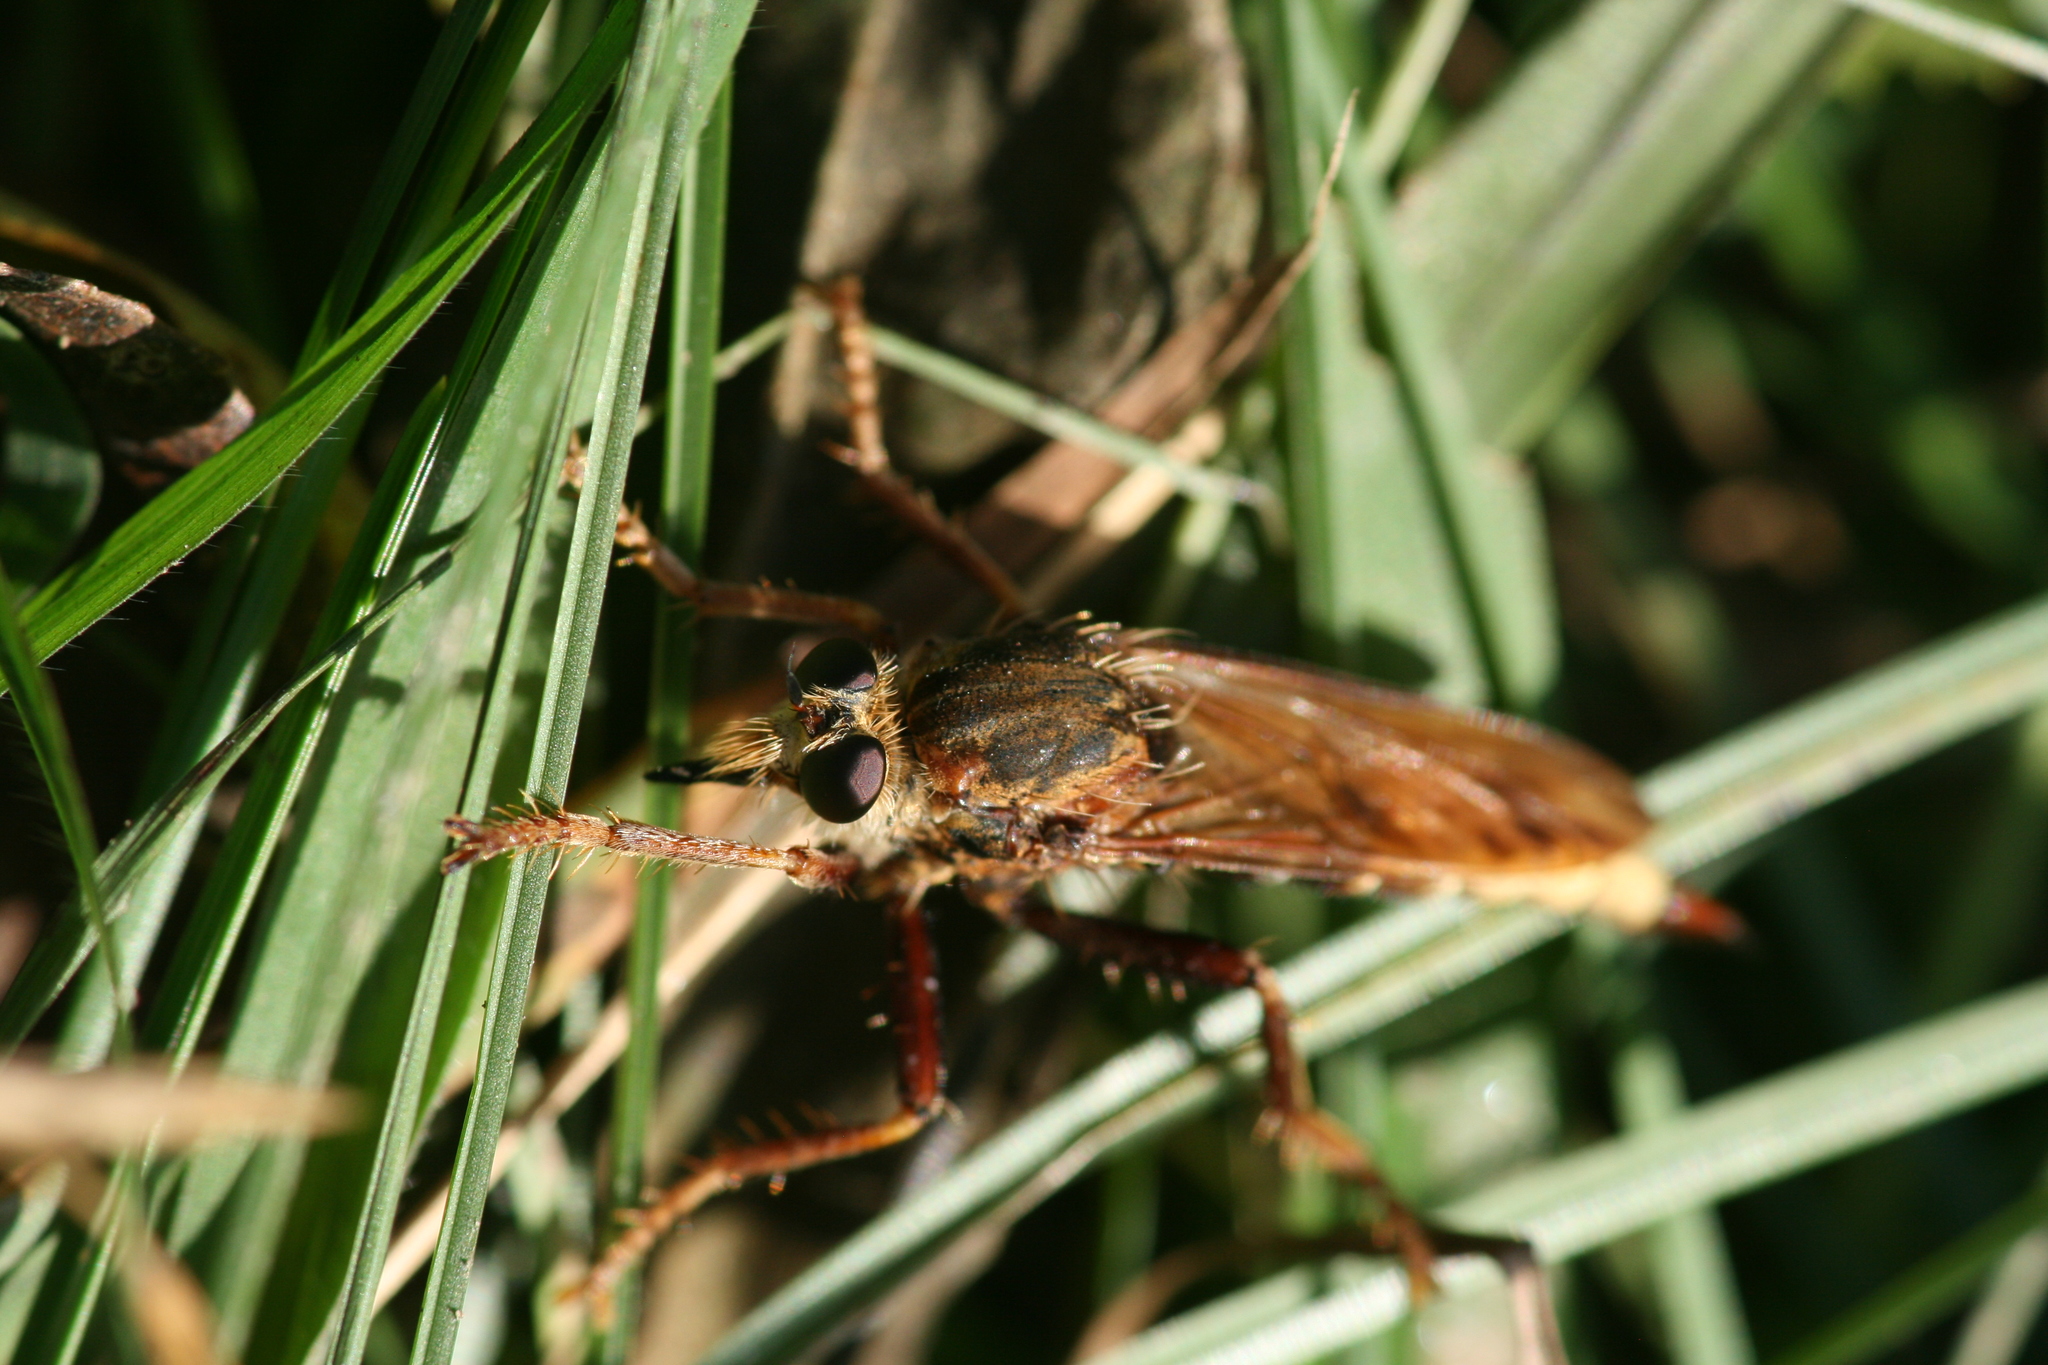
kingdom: Animalia
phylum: Arthropoda
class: Insecta
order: Diptera
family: Asilidae
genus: Asilus
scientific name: Asilus crabroniformis
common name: Hornet robberfly
